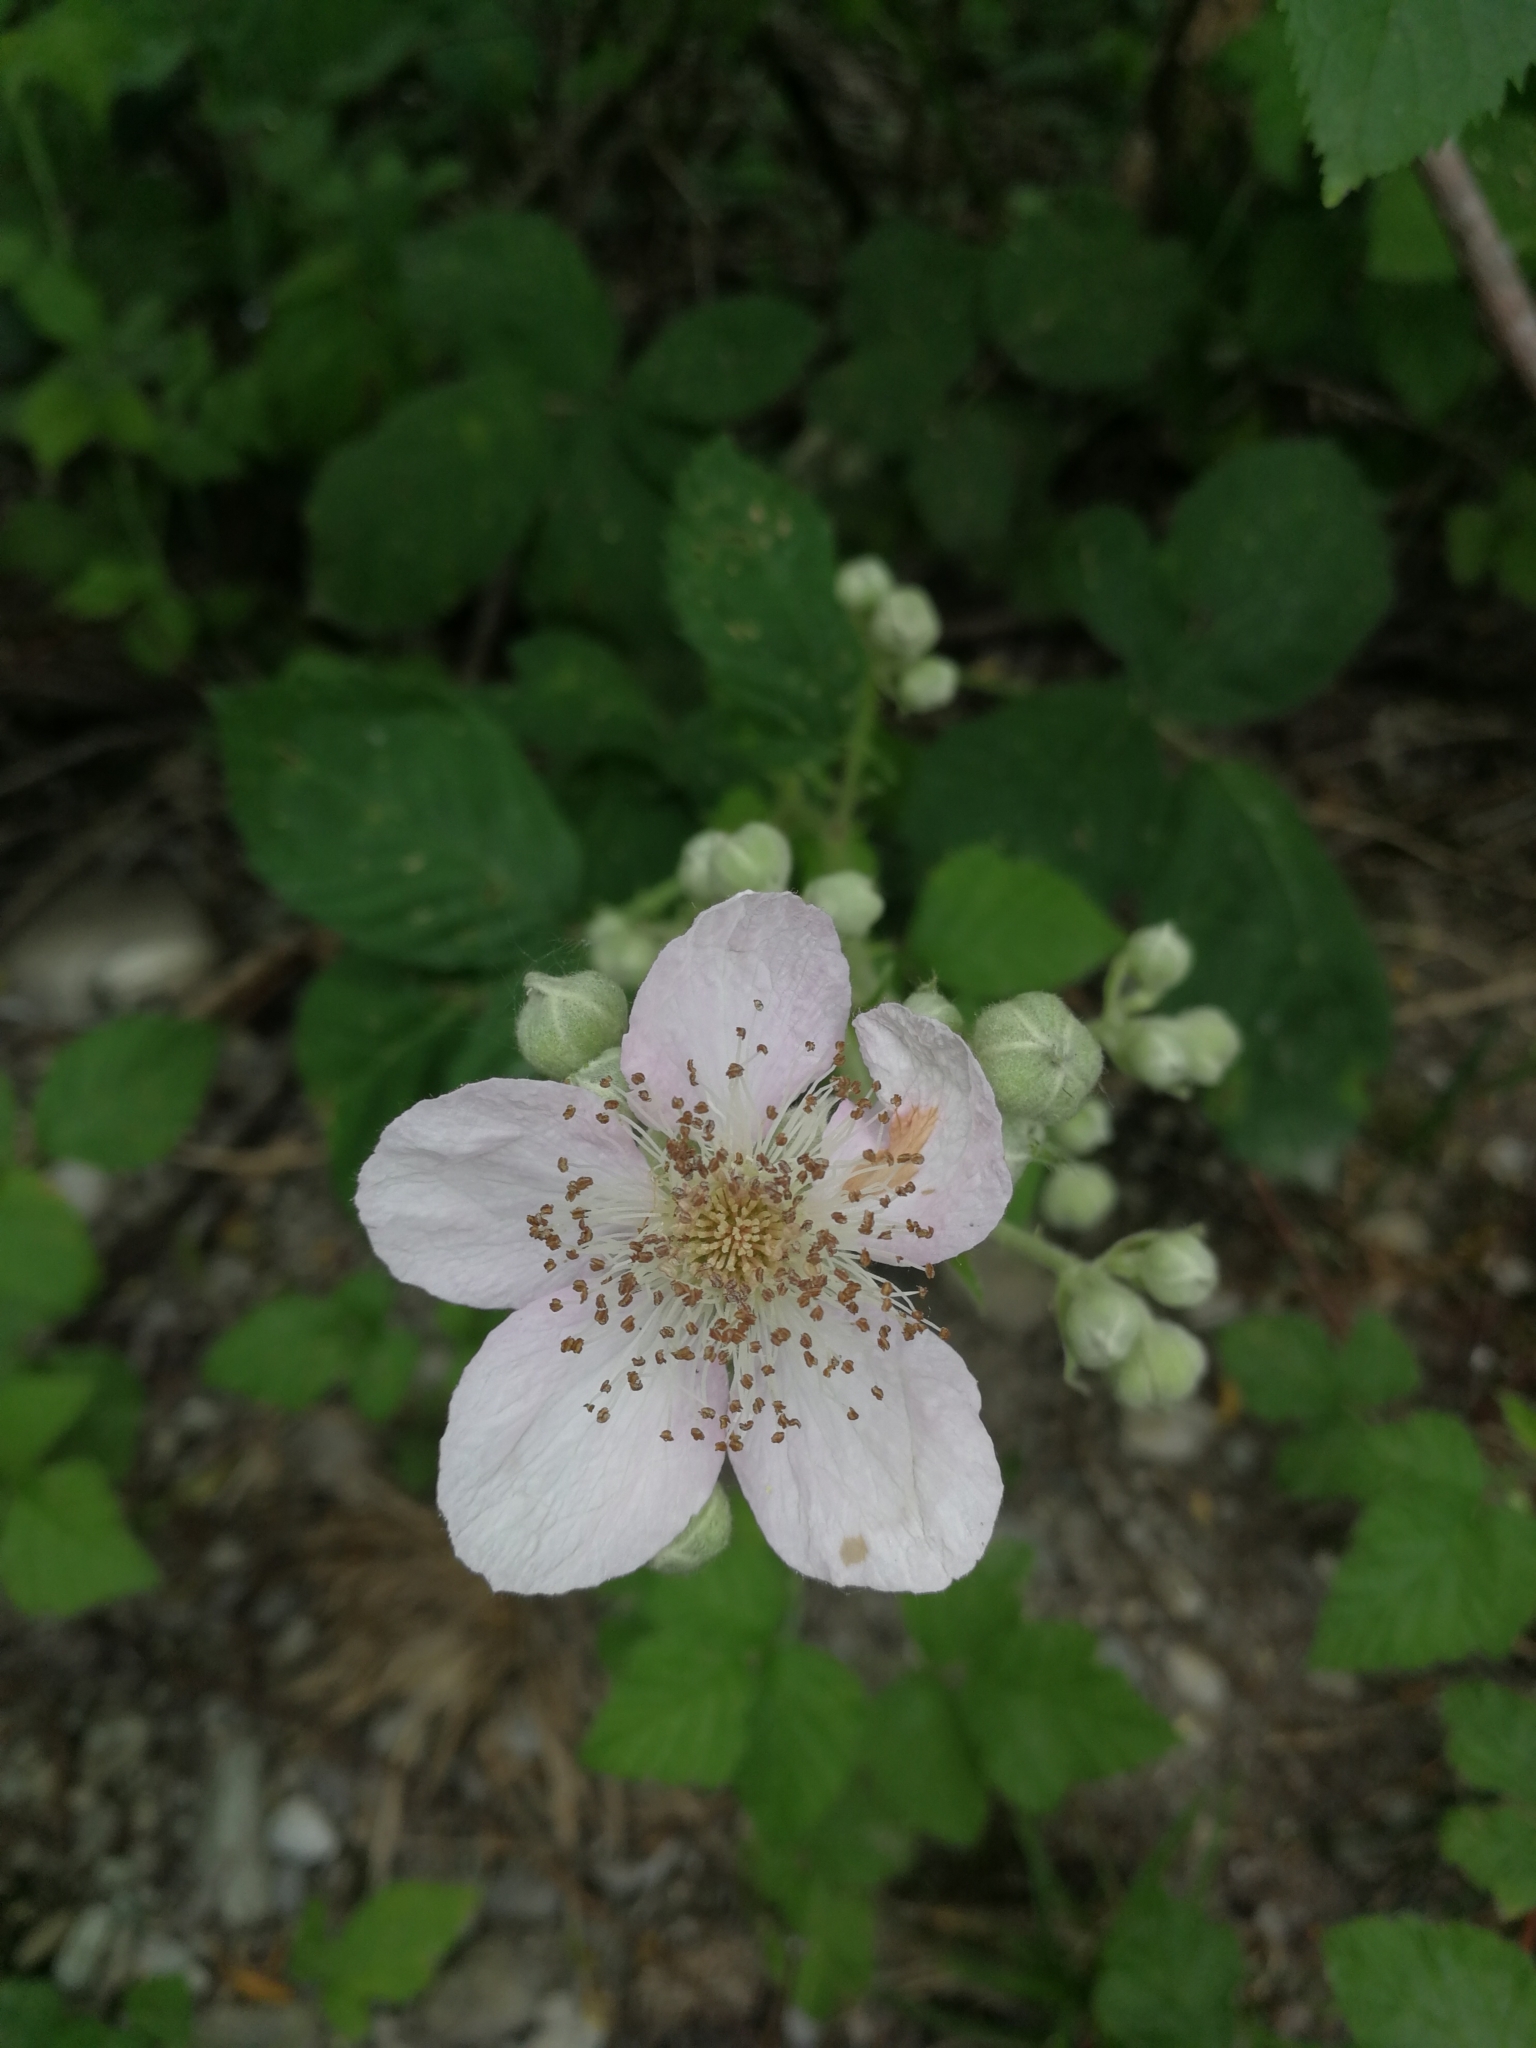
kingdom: Plantae
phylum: Tracheophyta
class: Magnoliopsida
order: Rosales
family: Rosaceae
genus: Rubus
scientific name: Rubus
